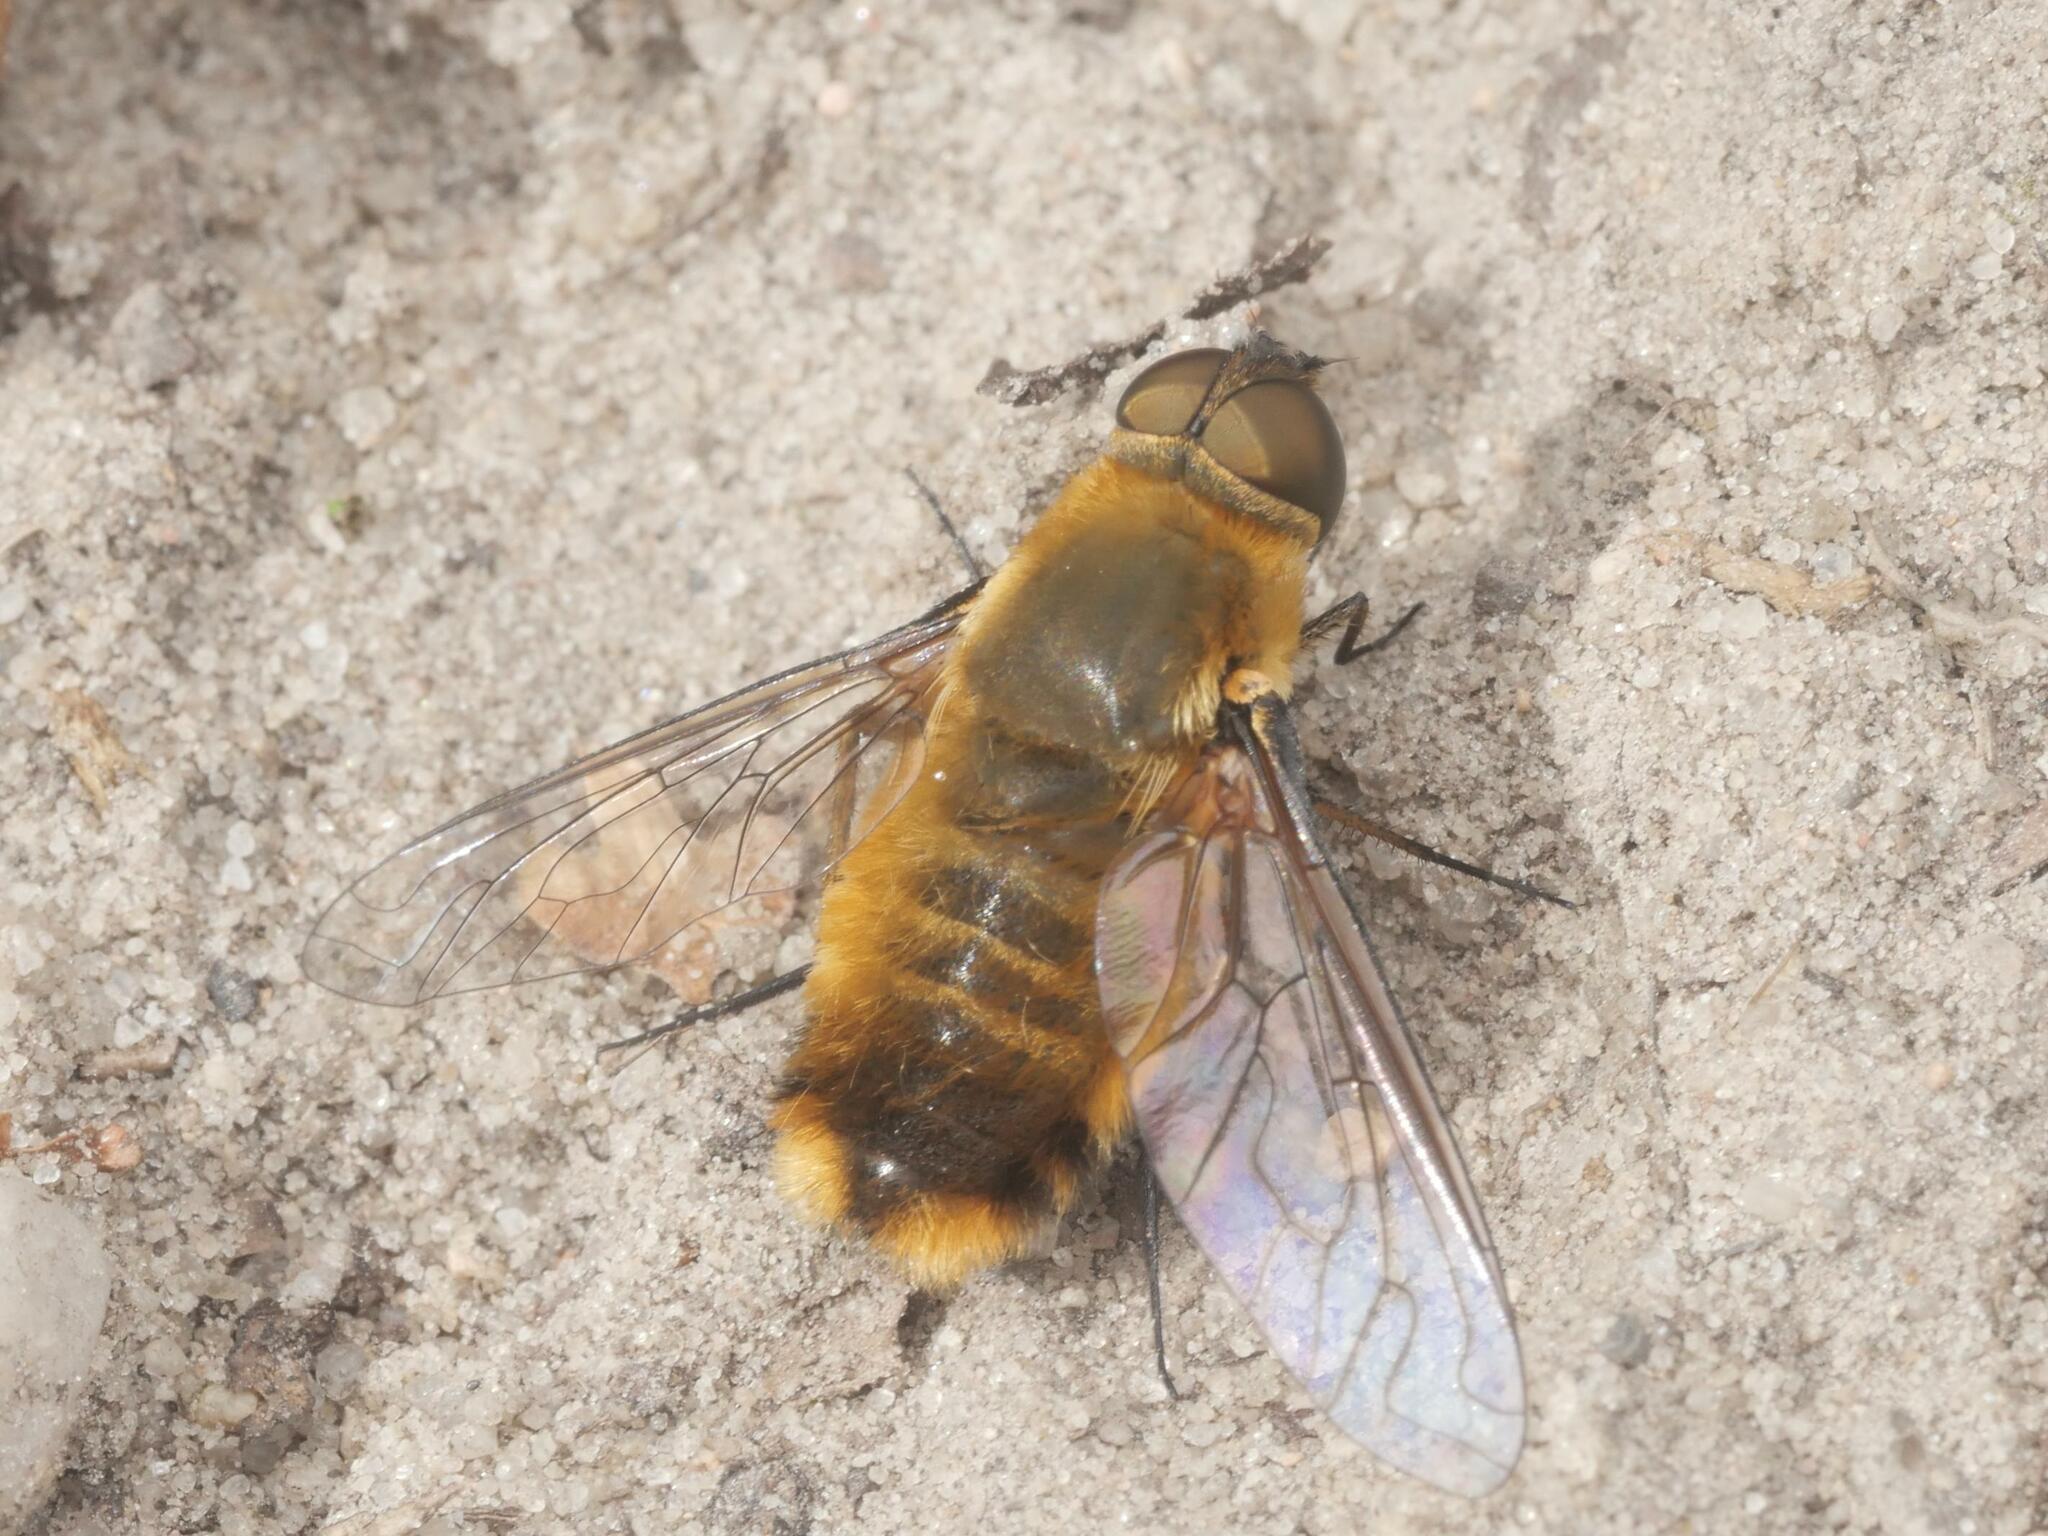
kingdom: Animalia
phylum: Arthropoda
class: Insecta
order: Diptera
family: Bombyliidae
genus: Villa
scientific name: Villa hottentotta
